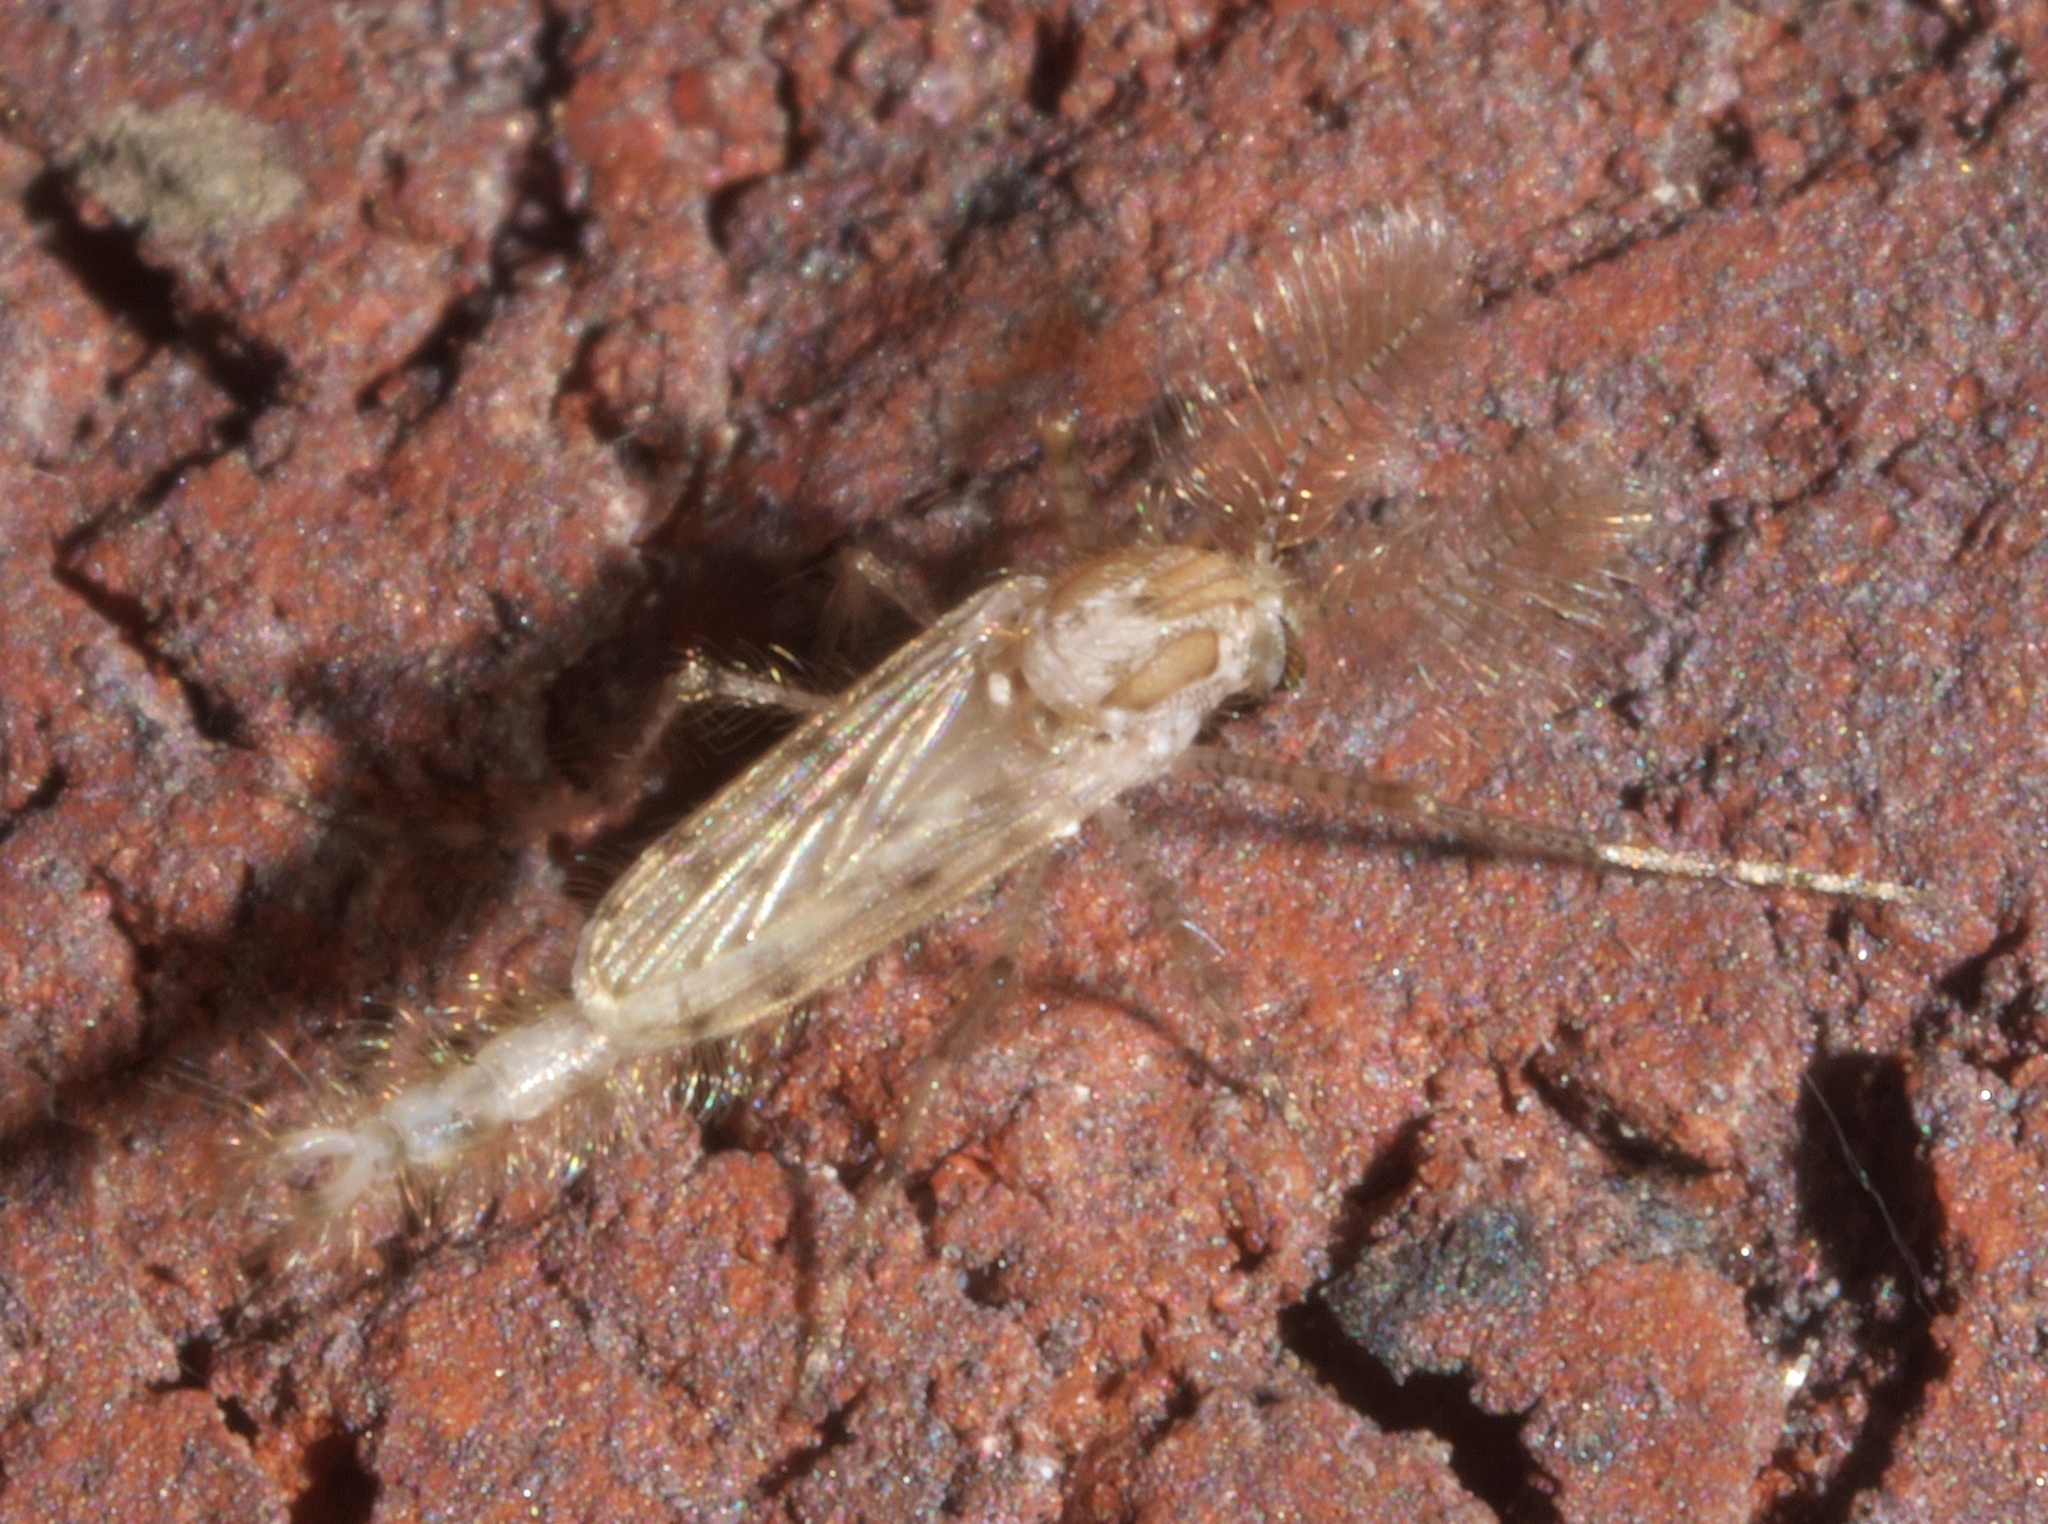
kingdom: Animalia
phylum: Arthropoda
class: Insecta
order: Diptera
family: Chaoboridae
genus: Chaoborus
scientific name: Chaoborus punctipennis
